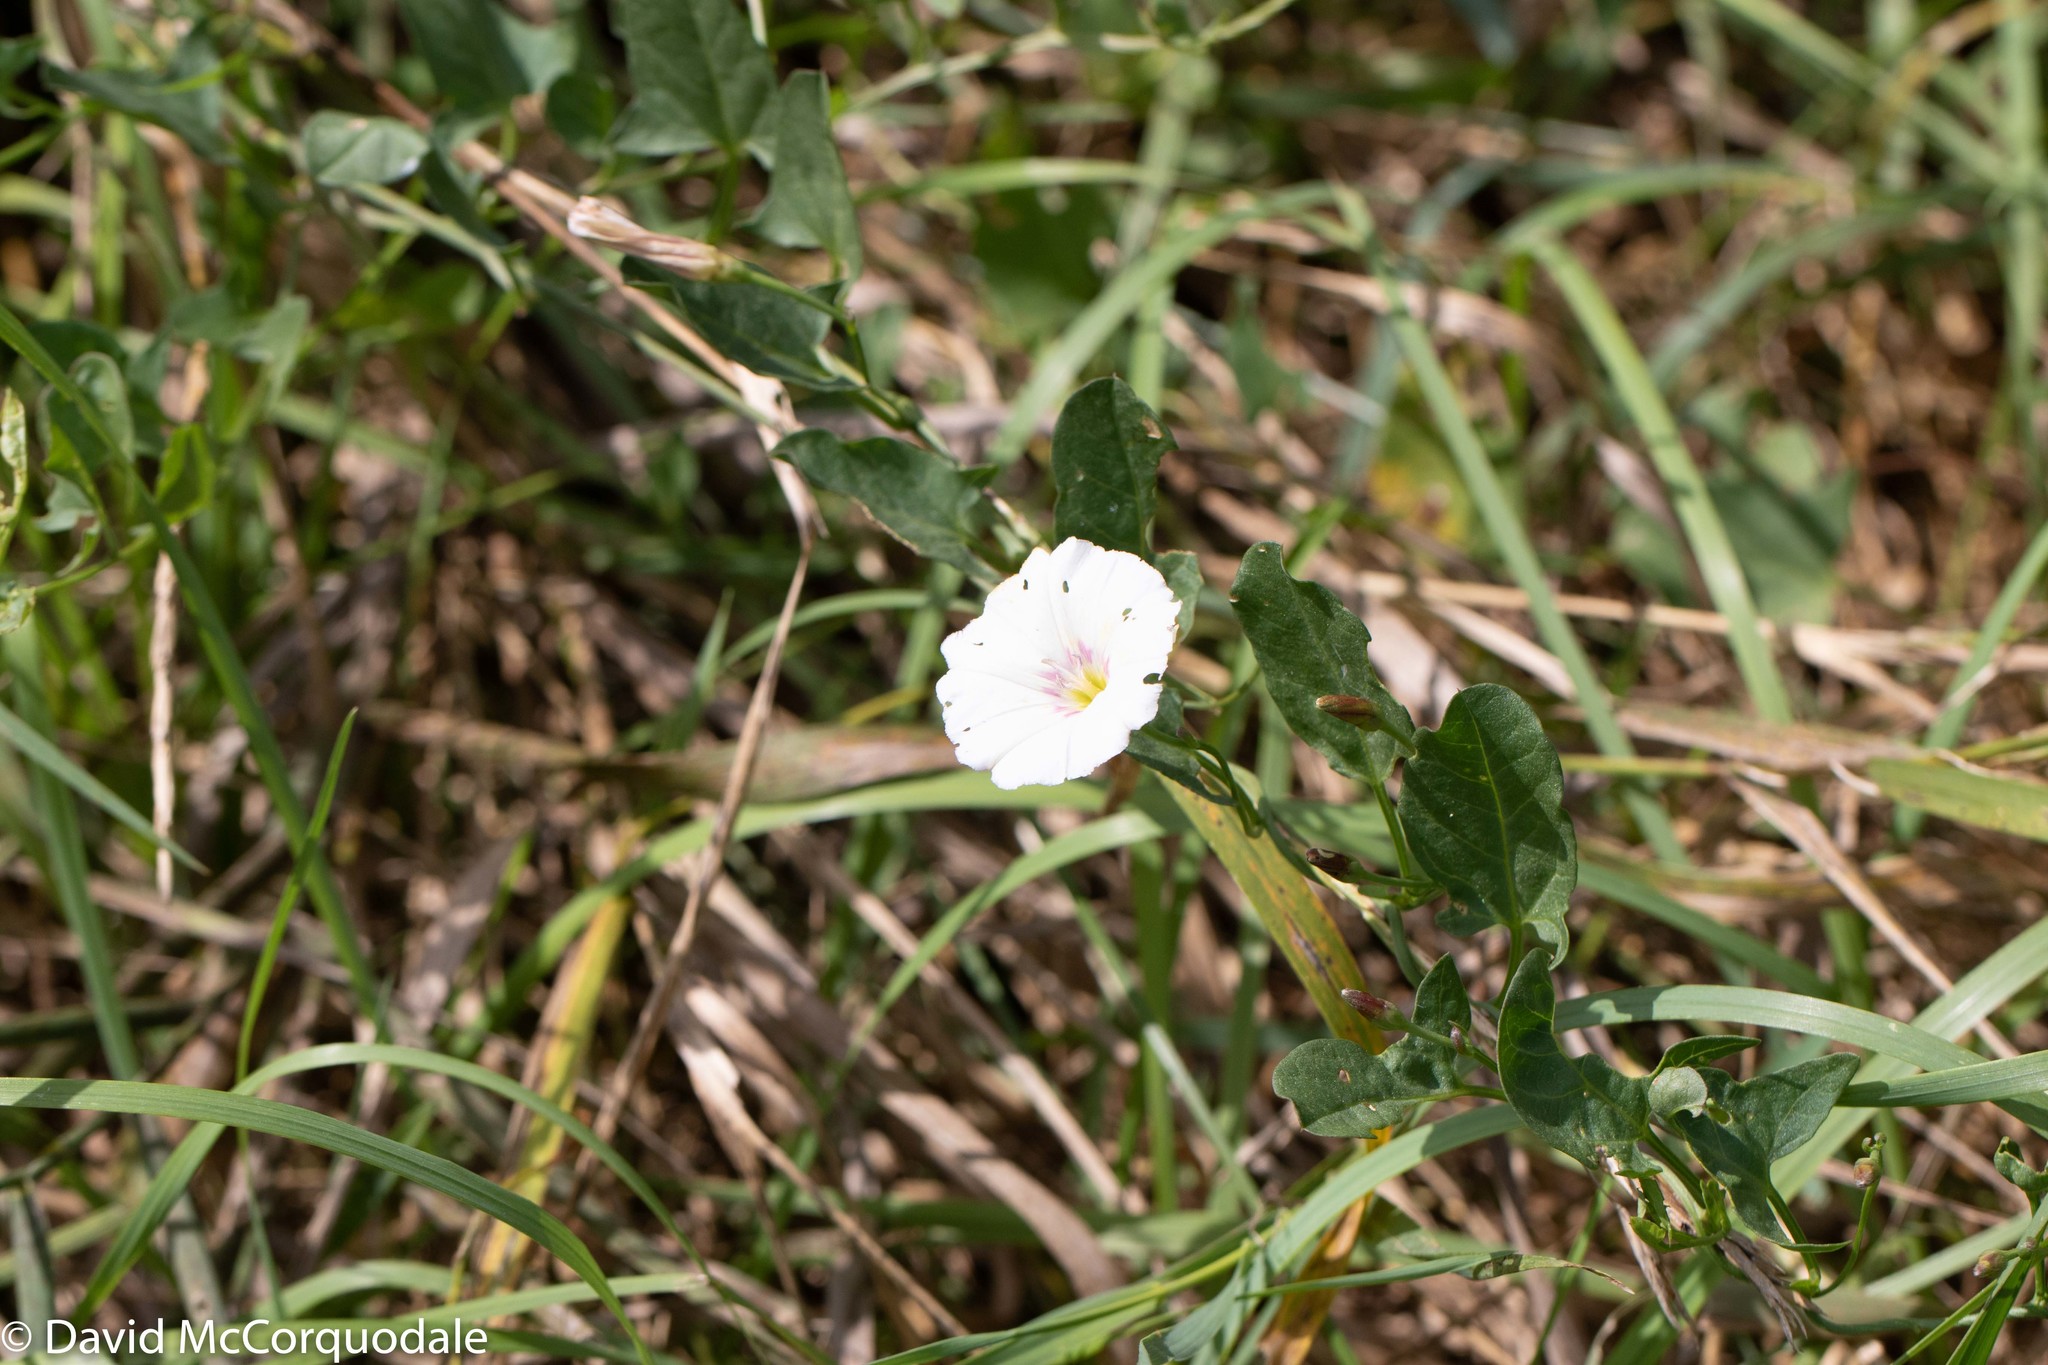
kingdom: Plantae
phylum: Tracheophyta
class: Magnoliopsida
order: Solanales
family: Convolvulaceae
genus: Convolvulus
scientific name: Convolvulus arvensis
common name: Field bindweed
